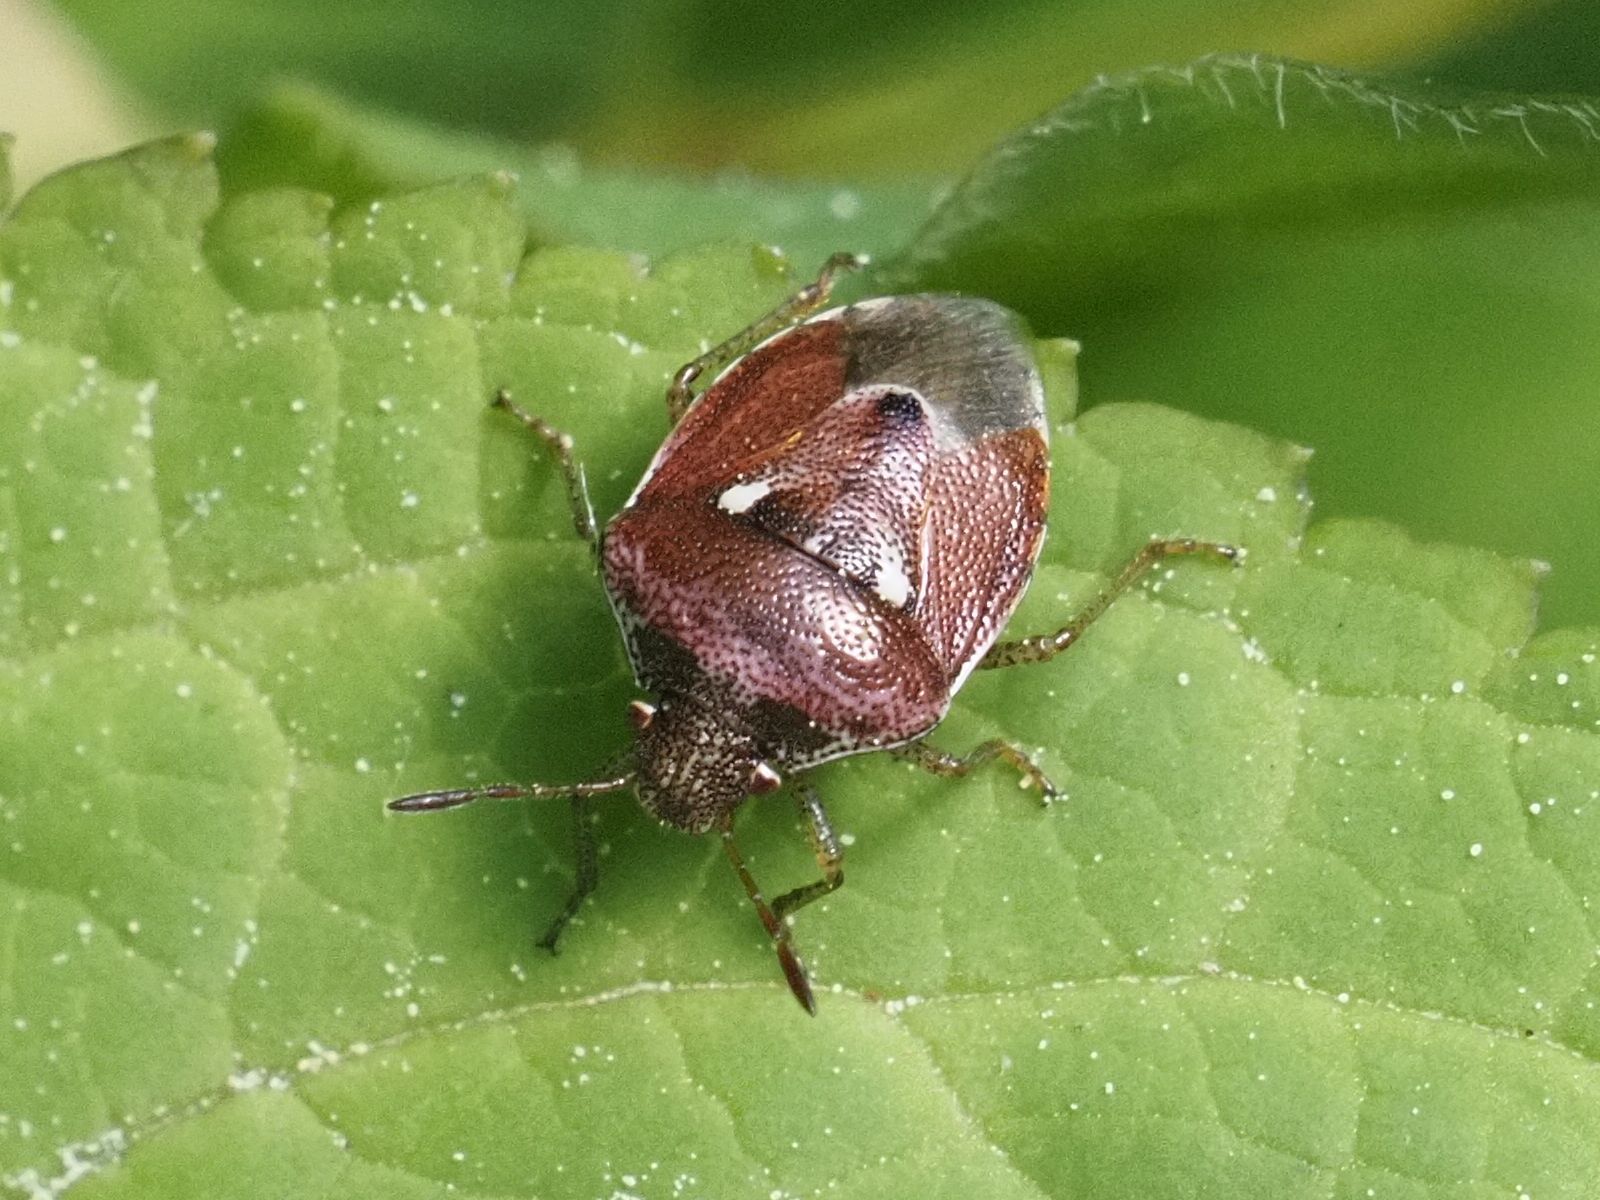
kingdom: Animalia
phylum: Arthropoda
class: Insecta
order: Hemiptera
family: Pentatomidae
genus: Stagonomus
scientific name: Stagonomus bipunctatus
